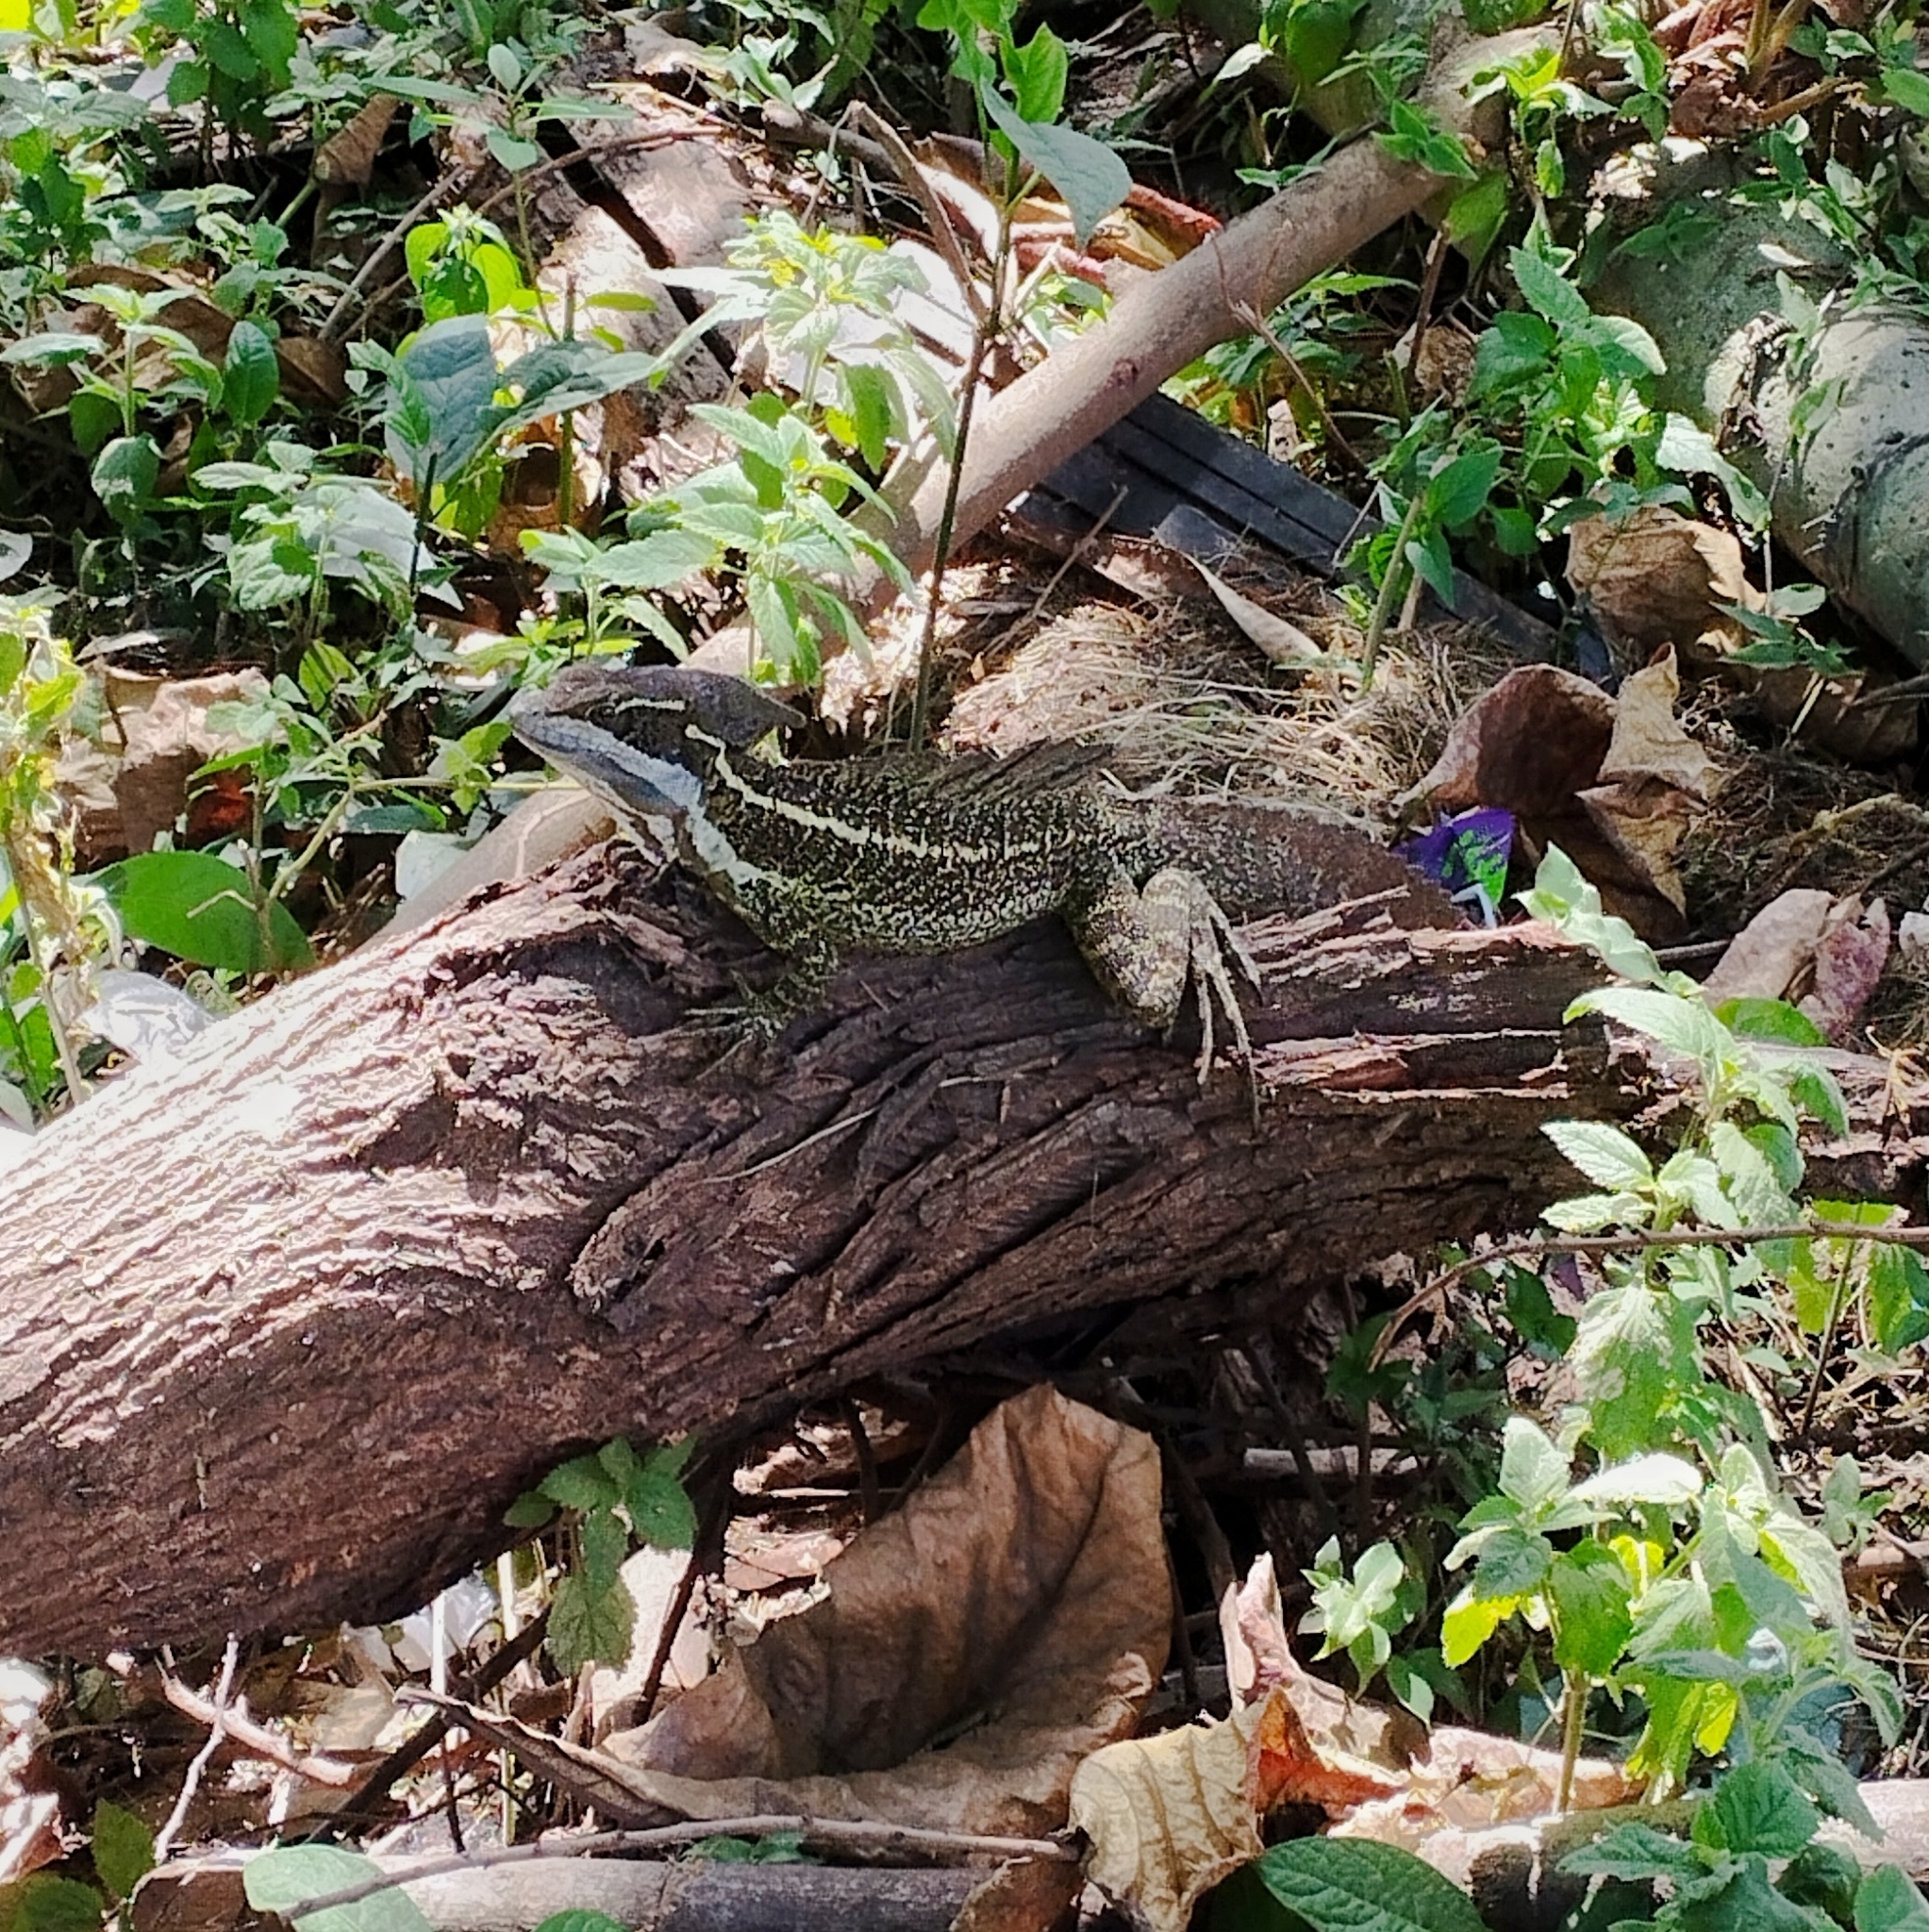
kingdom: Animalia
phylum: Chordata
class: Squamata
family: Corytophanidae
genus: Basiliscus
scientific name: Basiliscus basiliscus
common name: Common basilisk
